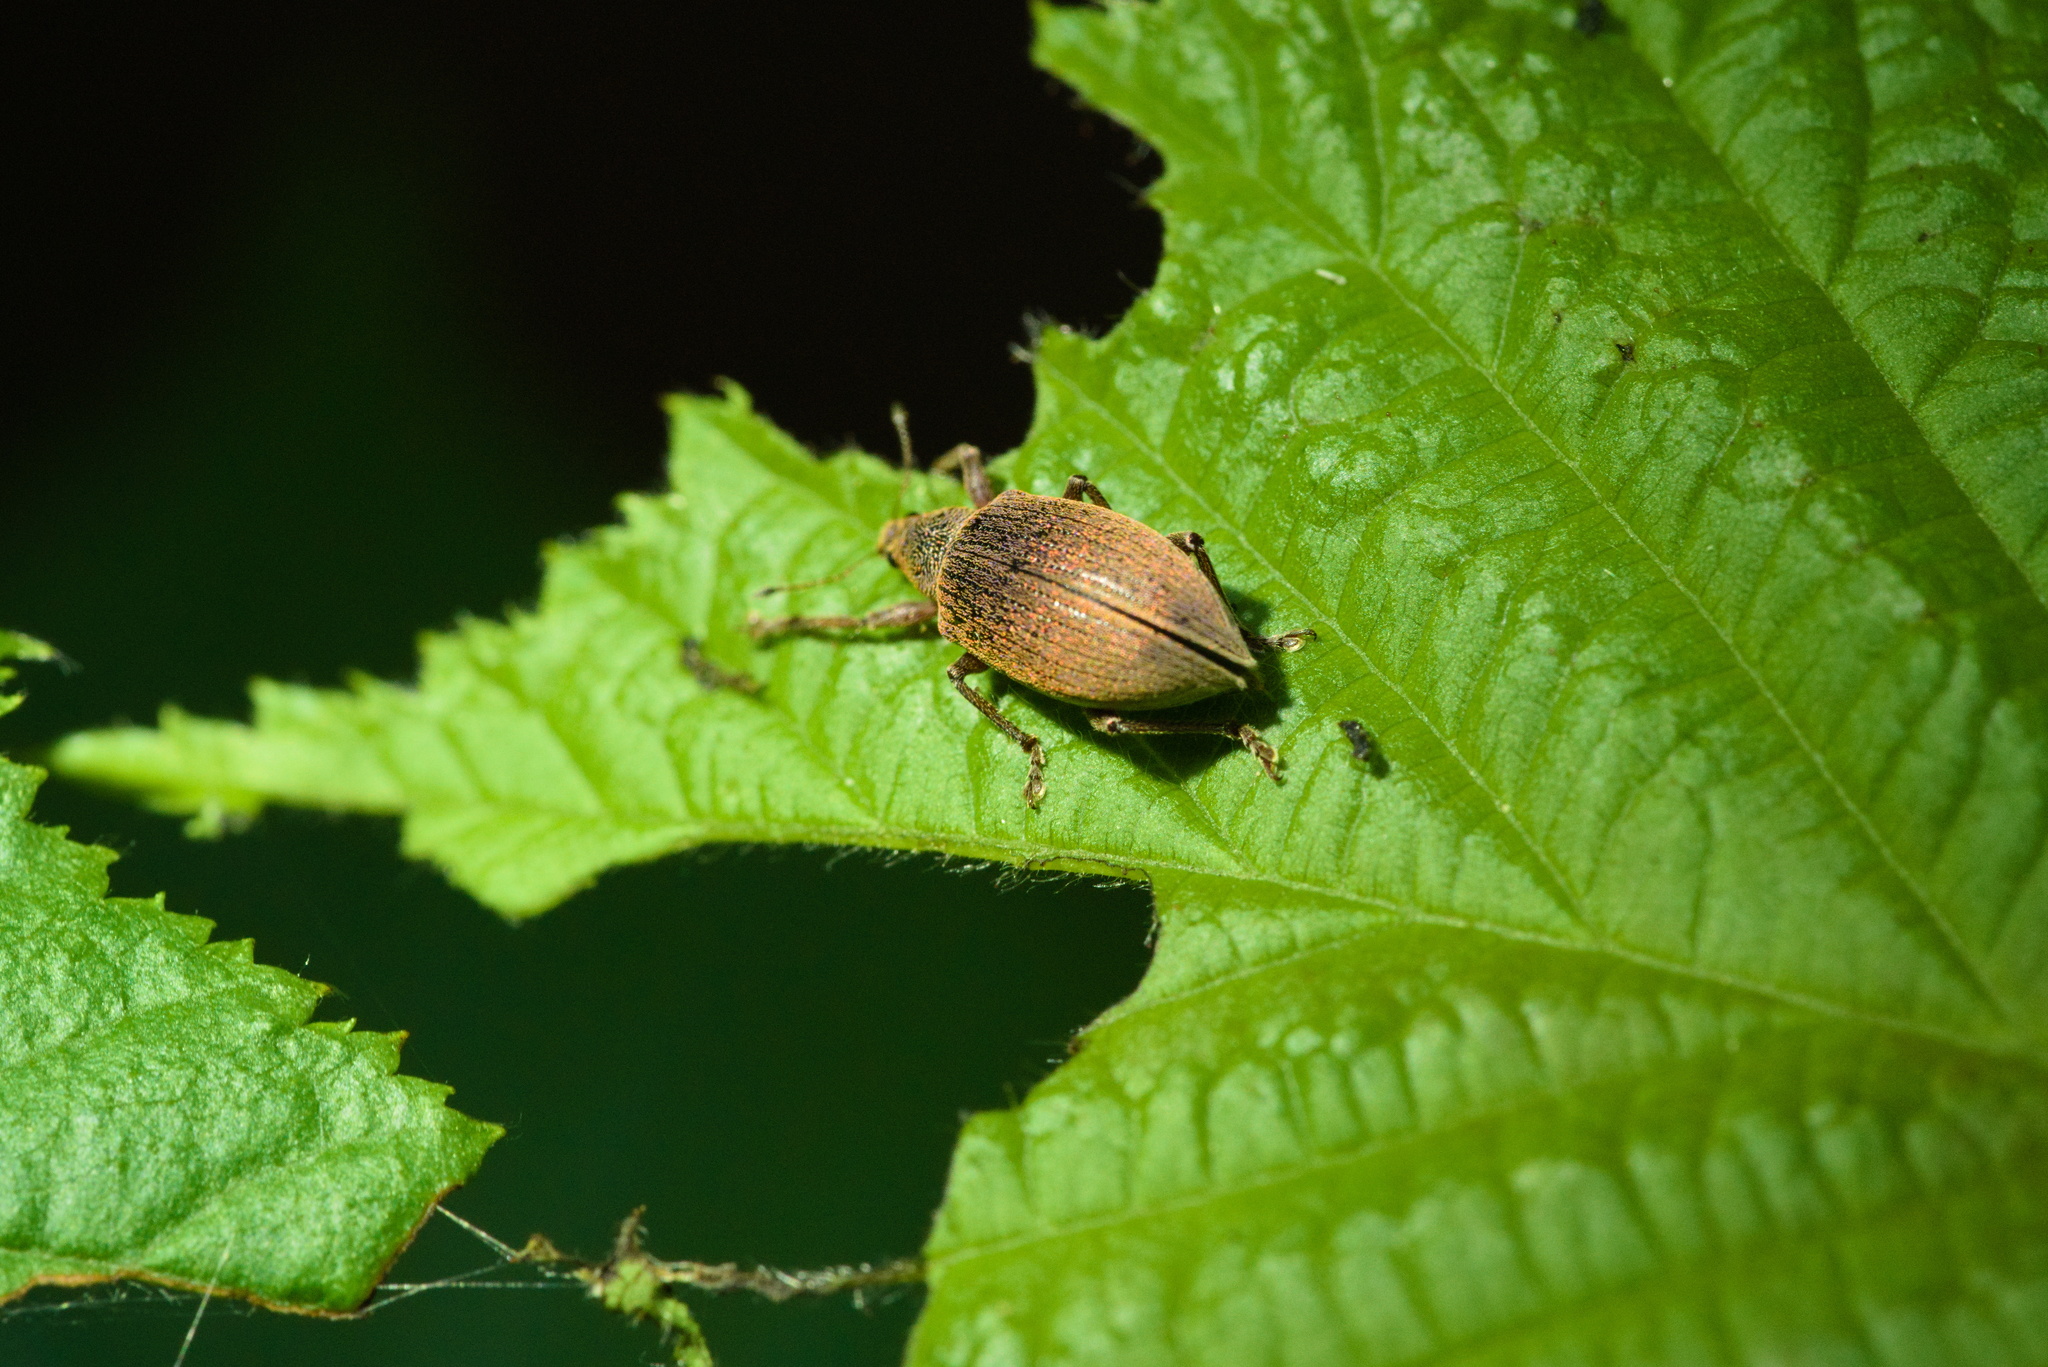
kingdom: Animalia
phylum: Arthropoda
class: Insecta
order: Coleoptera
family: Curculionidae
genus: Polydrusus
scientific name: Polydrusus mollis
